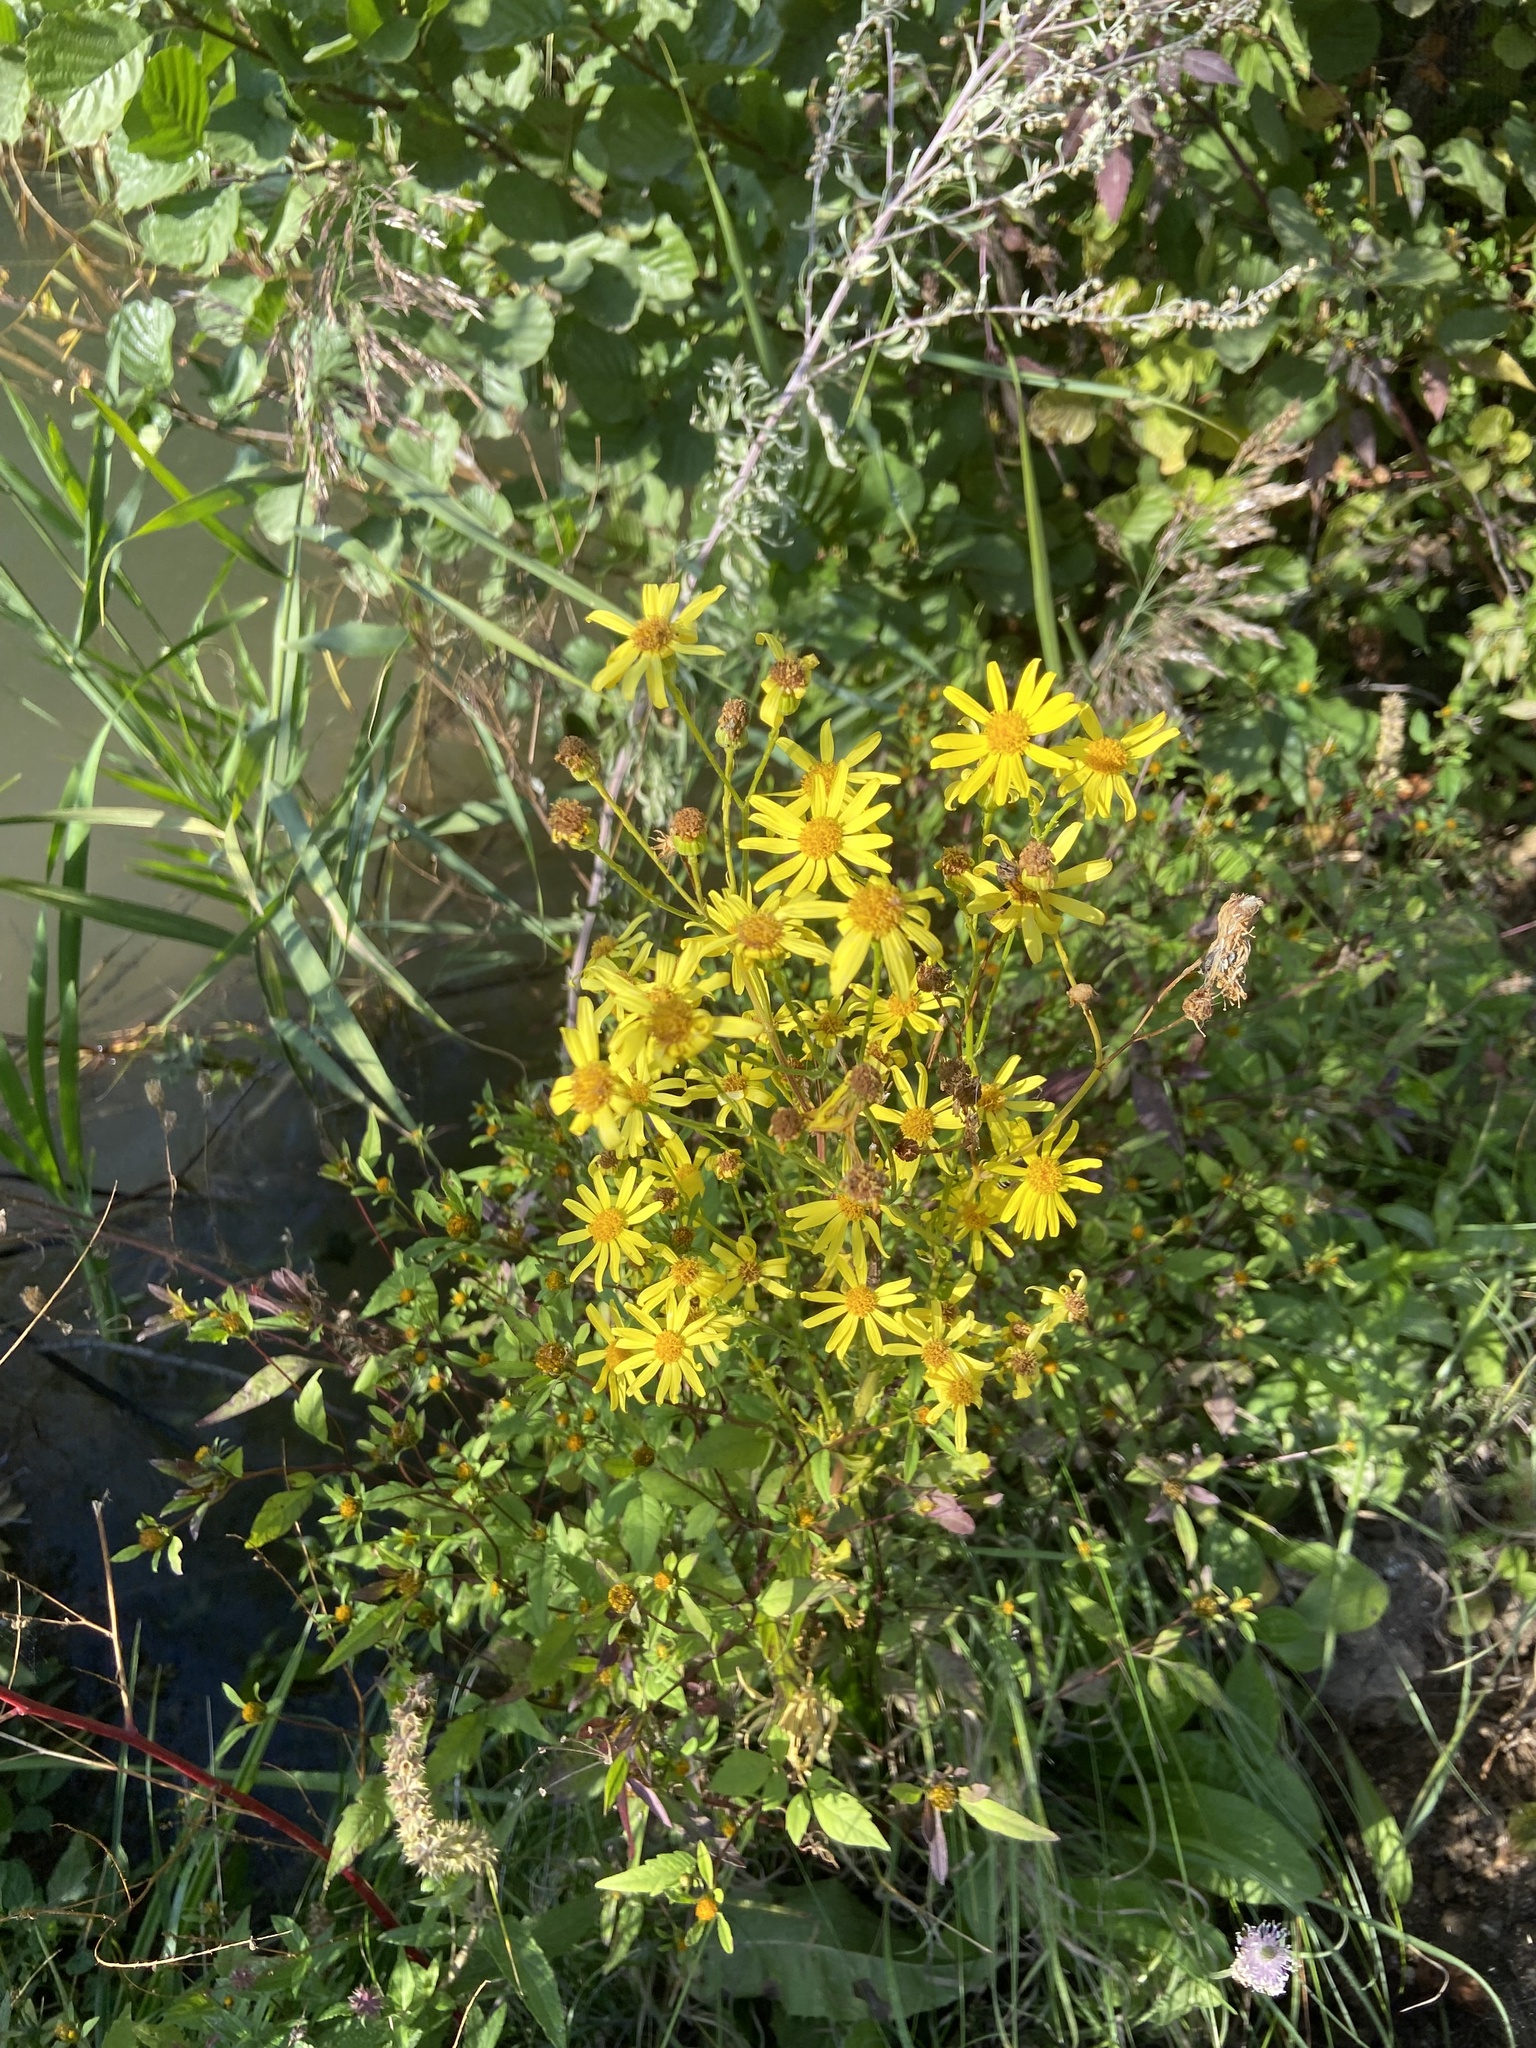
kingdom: Plantae
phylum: Tracheophyta
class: Magnoliopsida
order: Asterales
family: Asteraceae
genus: Jacobaea
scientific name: Jacobaea vulgaris
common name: Stinking willie
